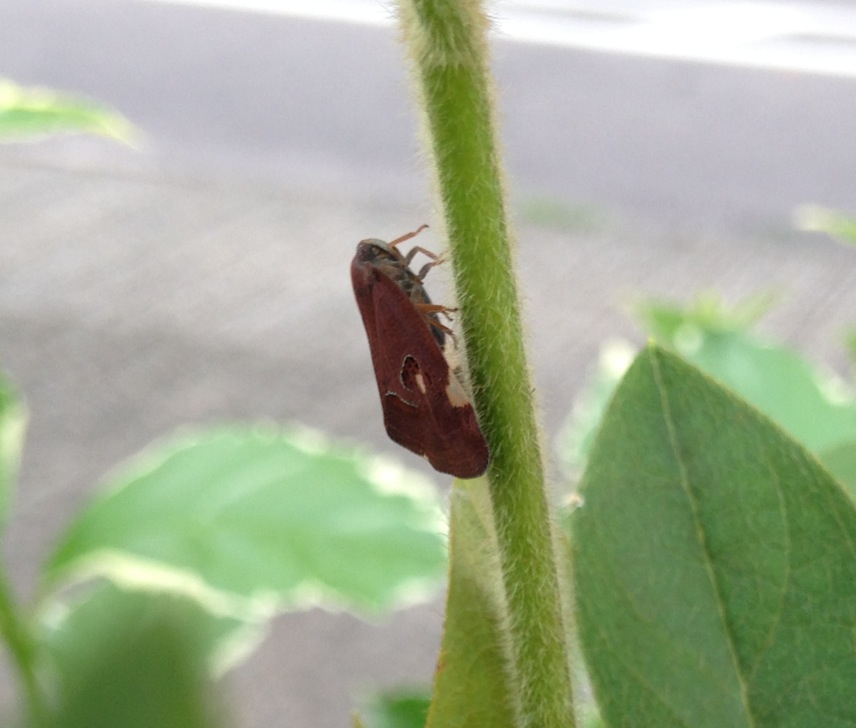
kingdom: Animalia
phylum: Arthropoda
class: Insecta
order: Hemiptera
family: Ricaniidae
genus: Ricania
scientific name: Ricania guttata
